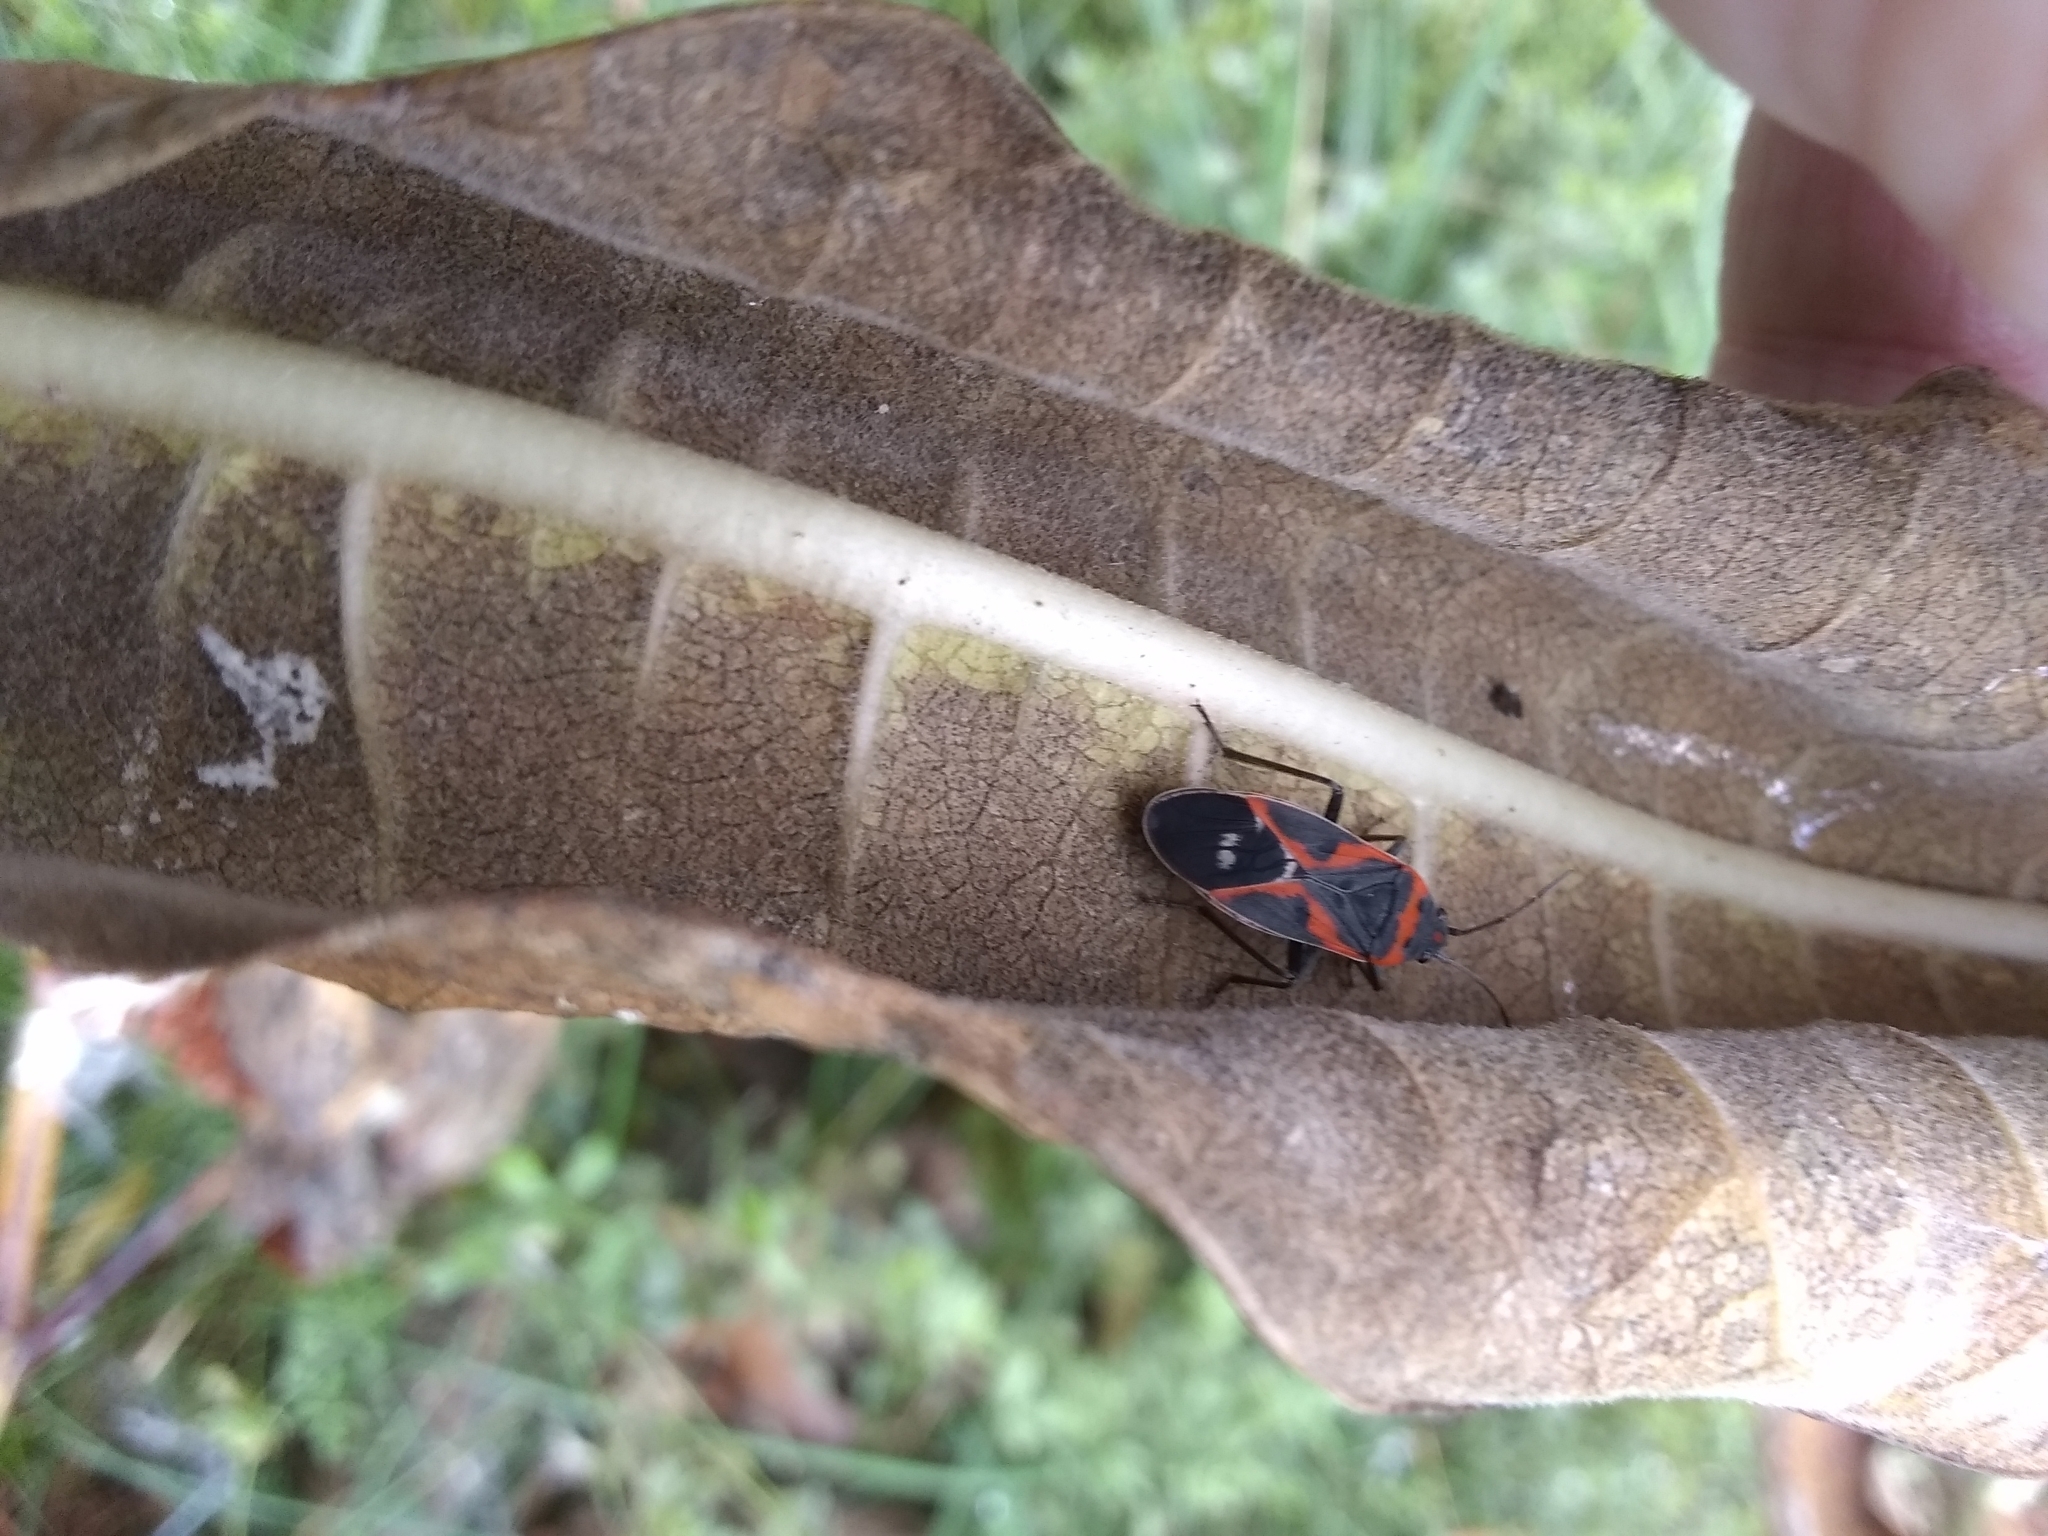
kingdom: Animalia
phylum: Arthropoda
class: Insecta
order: Hemiptera
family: Lygaeidae
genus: Lygaeus
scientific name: Lygaeus kalmii
